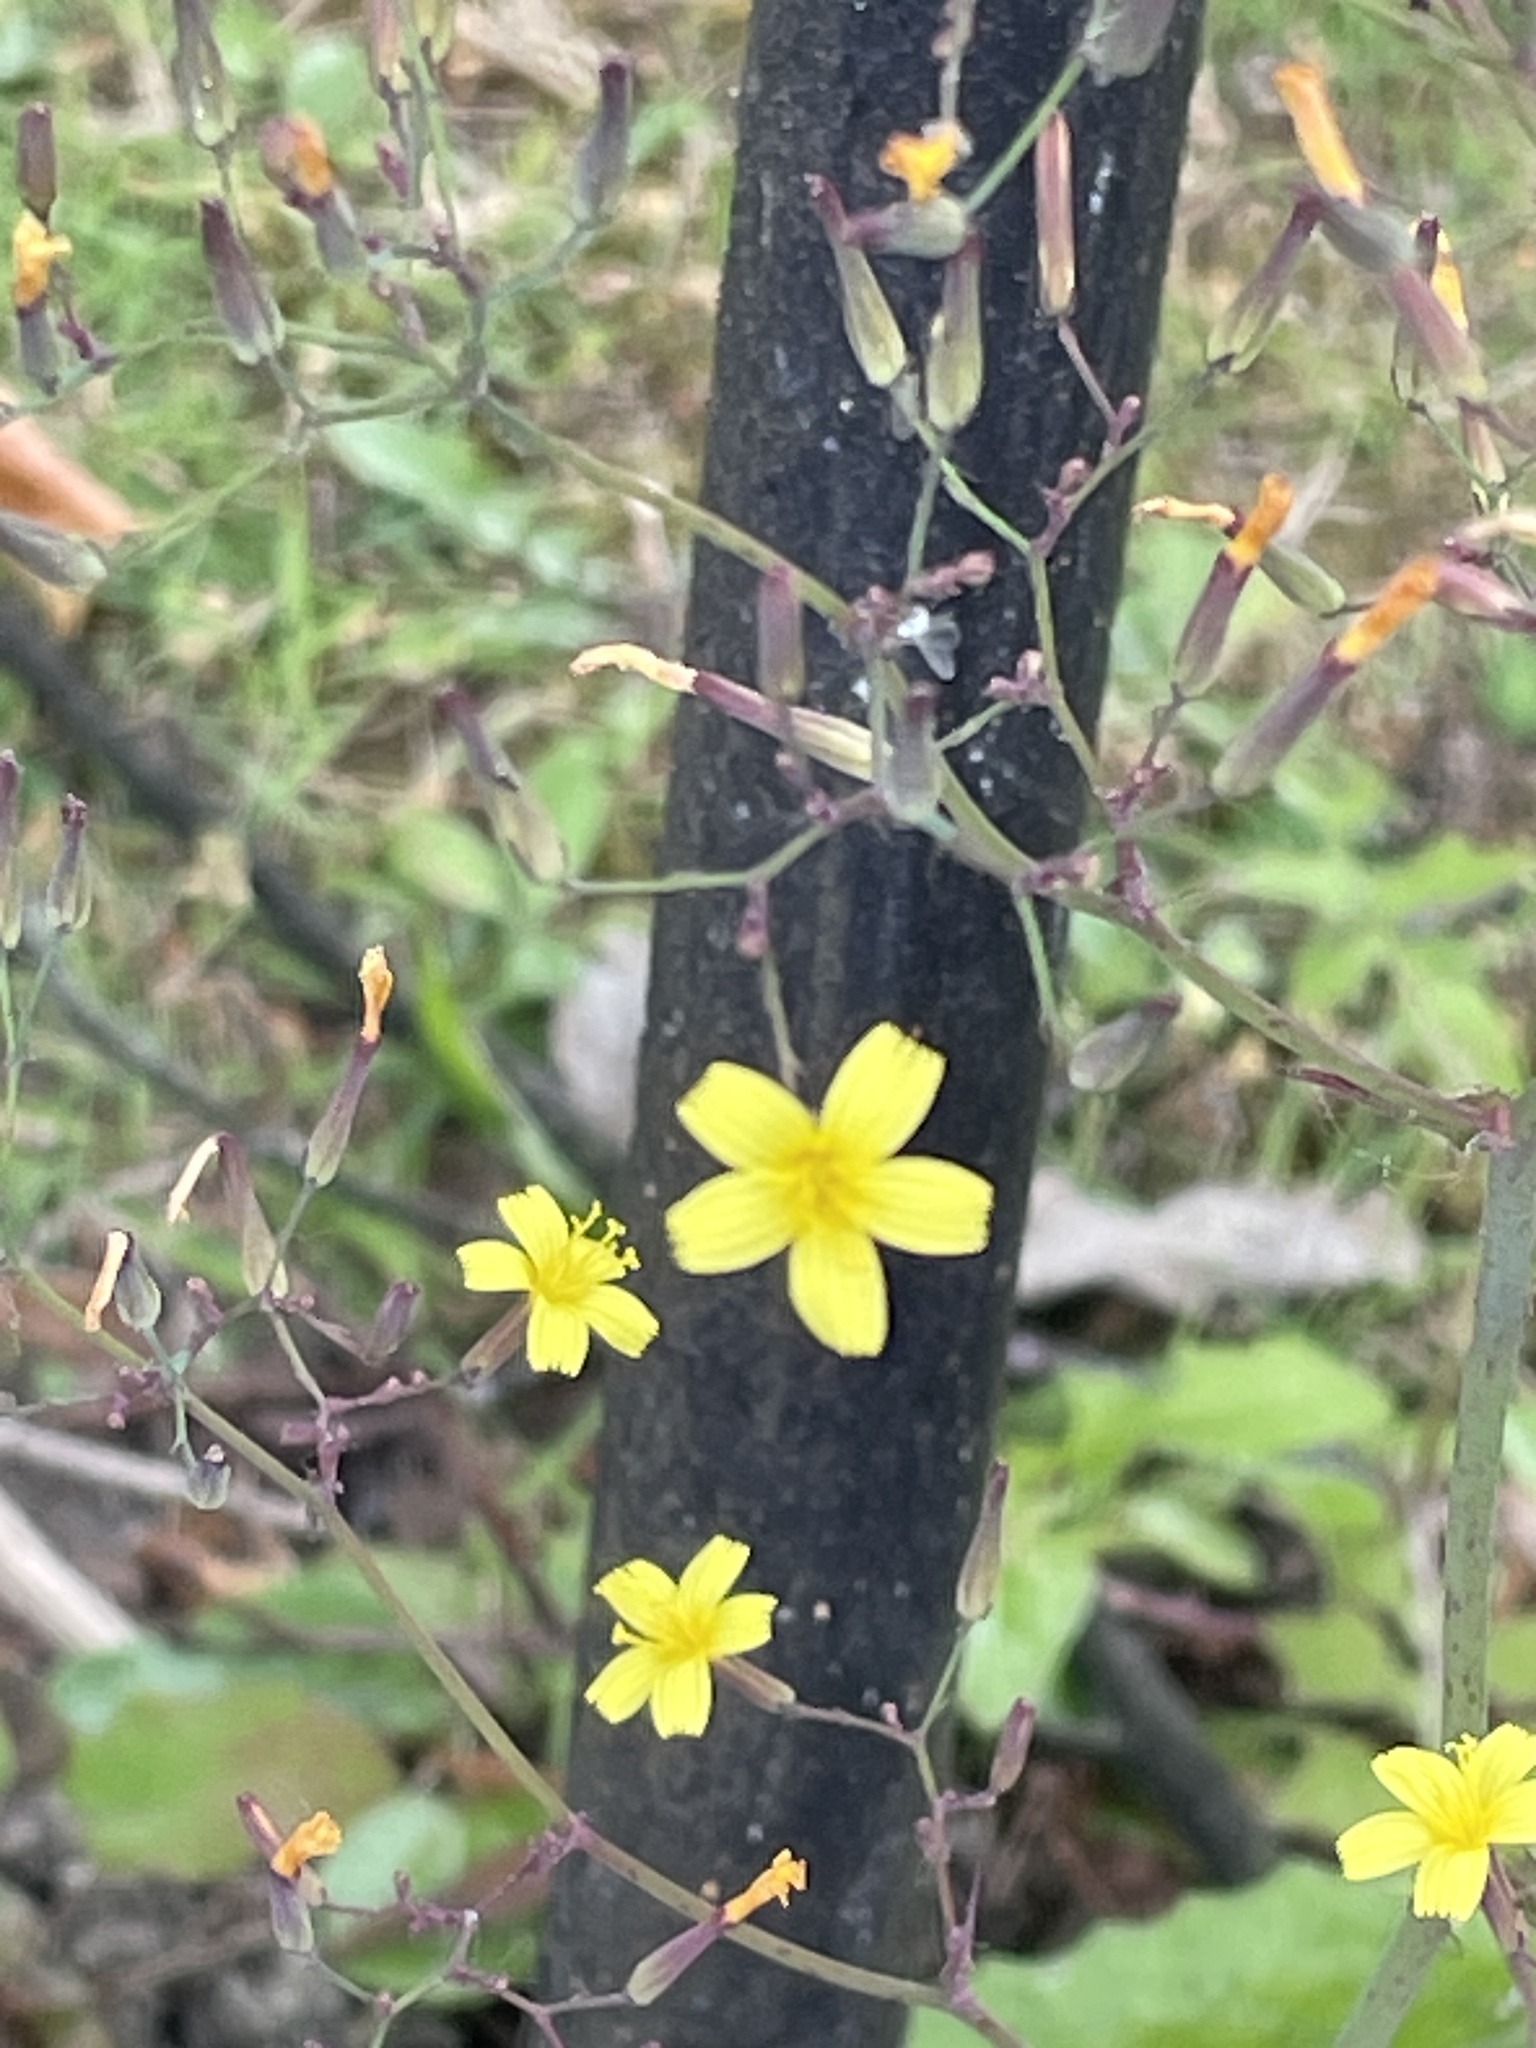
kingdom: Plantae
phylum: Tracheophyta
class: Magnoliopsida
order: Asterales
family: Asteraceae
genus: Mycelis
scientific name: Mycelis muralis
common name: Wall lettuce
